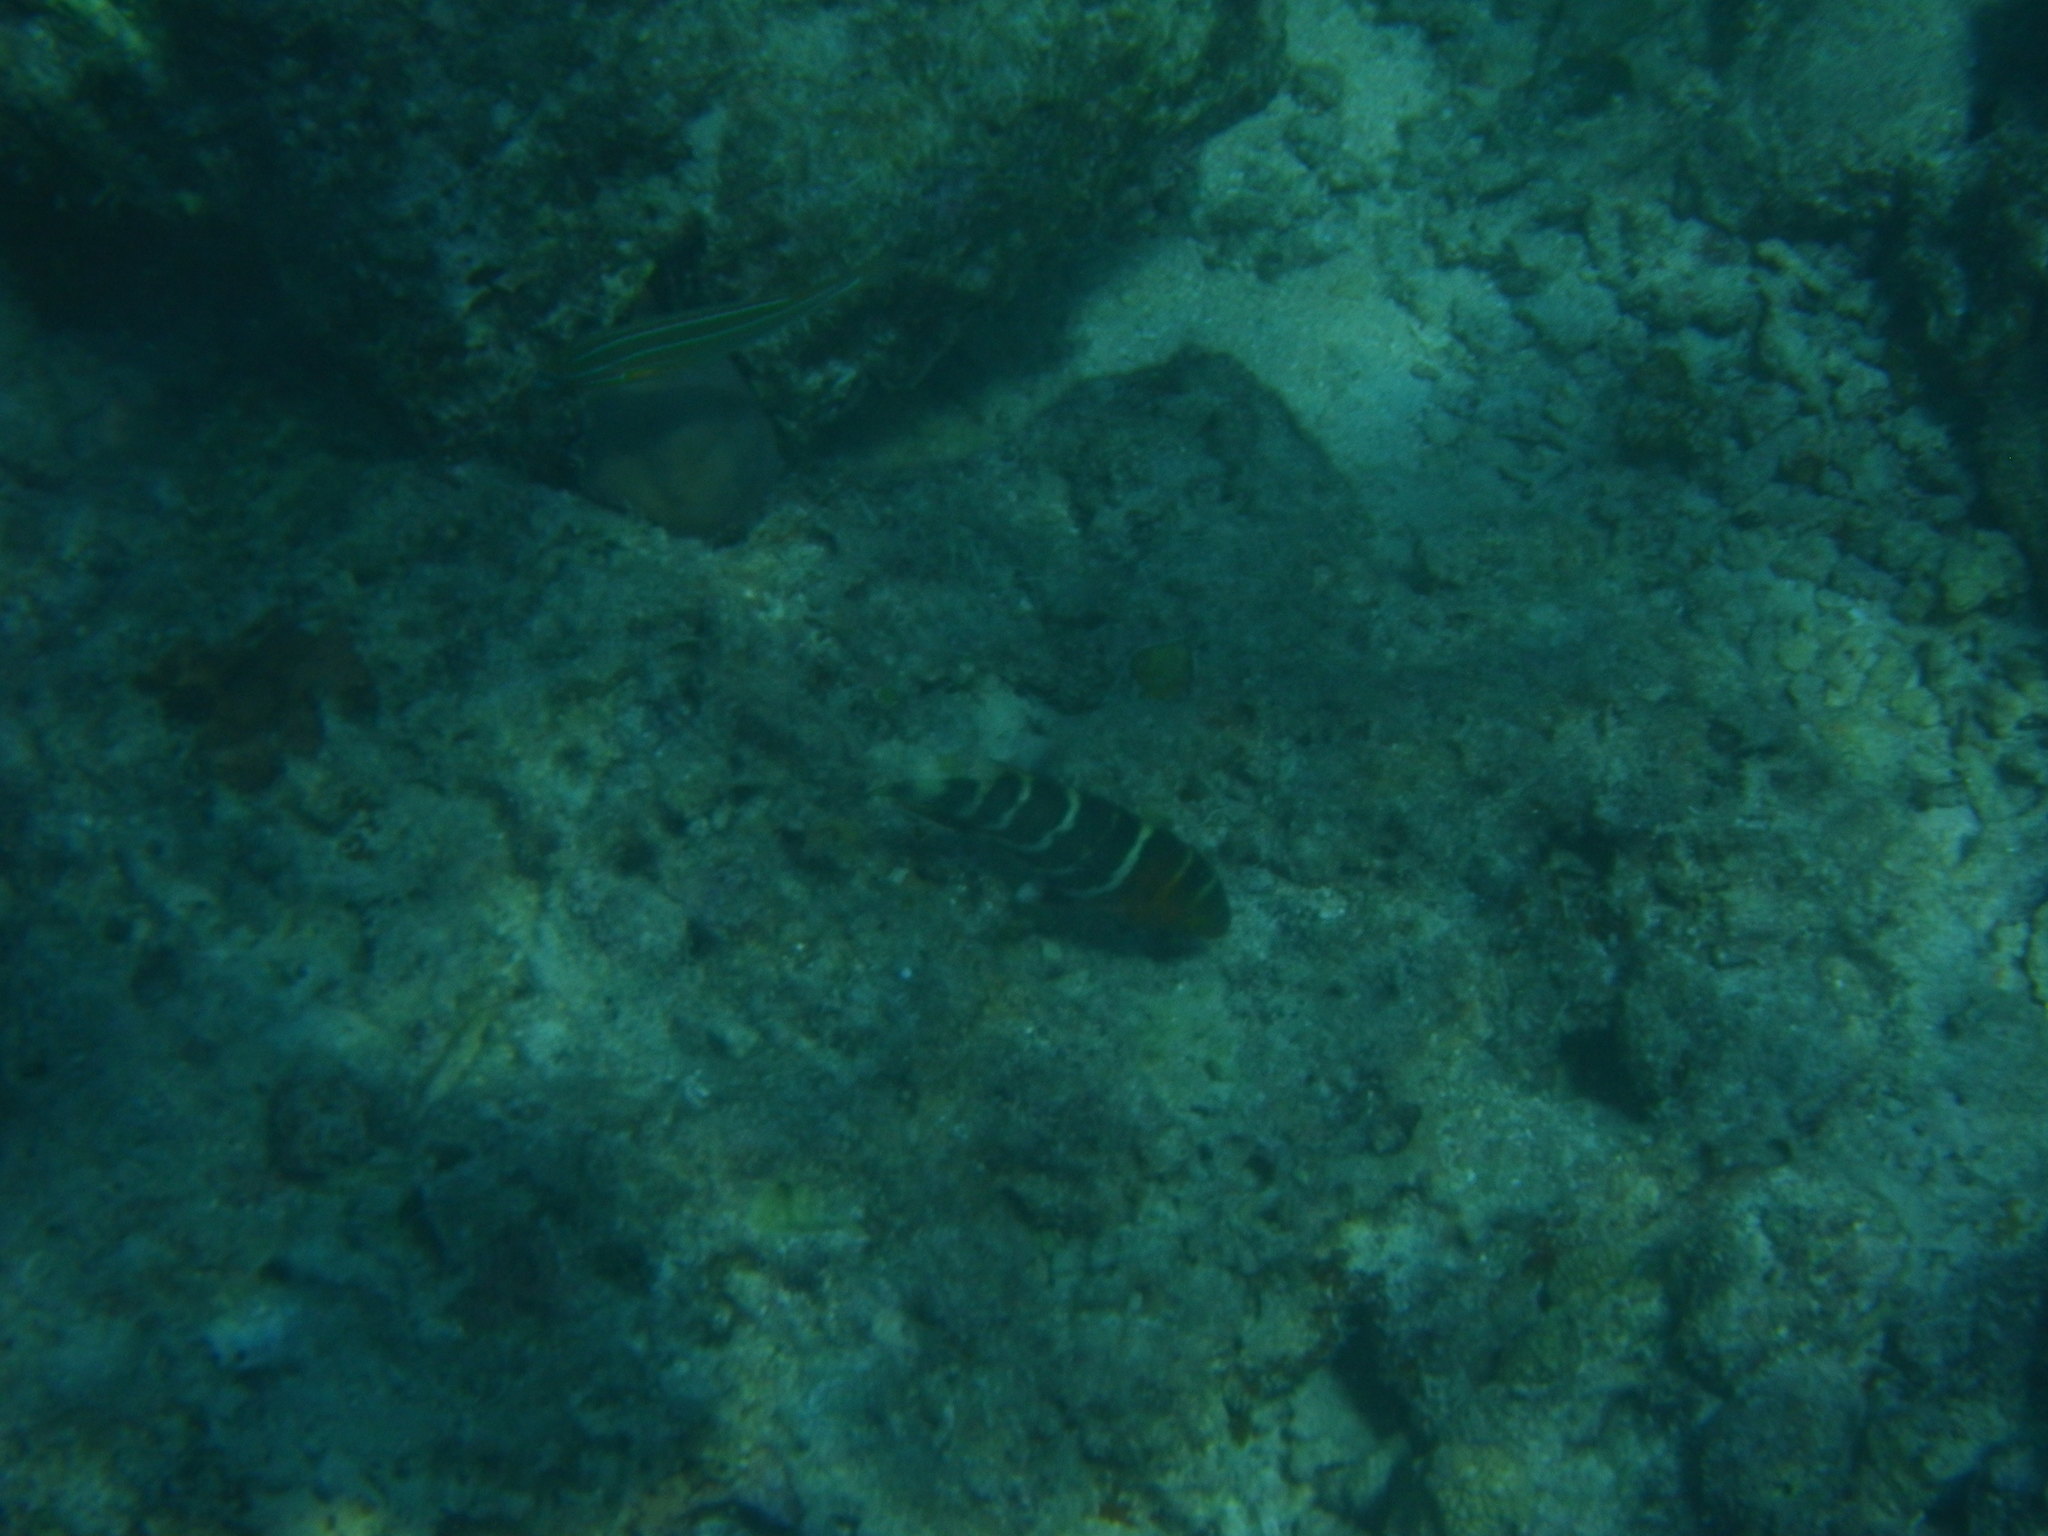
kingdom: Animalia
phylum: Chordata
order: Perciformes
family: Labridae
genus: Cheilinus
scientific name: Cheilinus fasciatus
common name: Red-breasted wrasse
